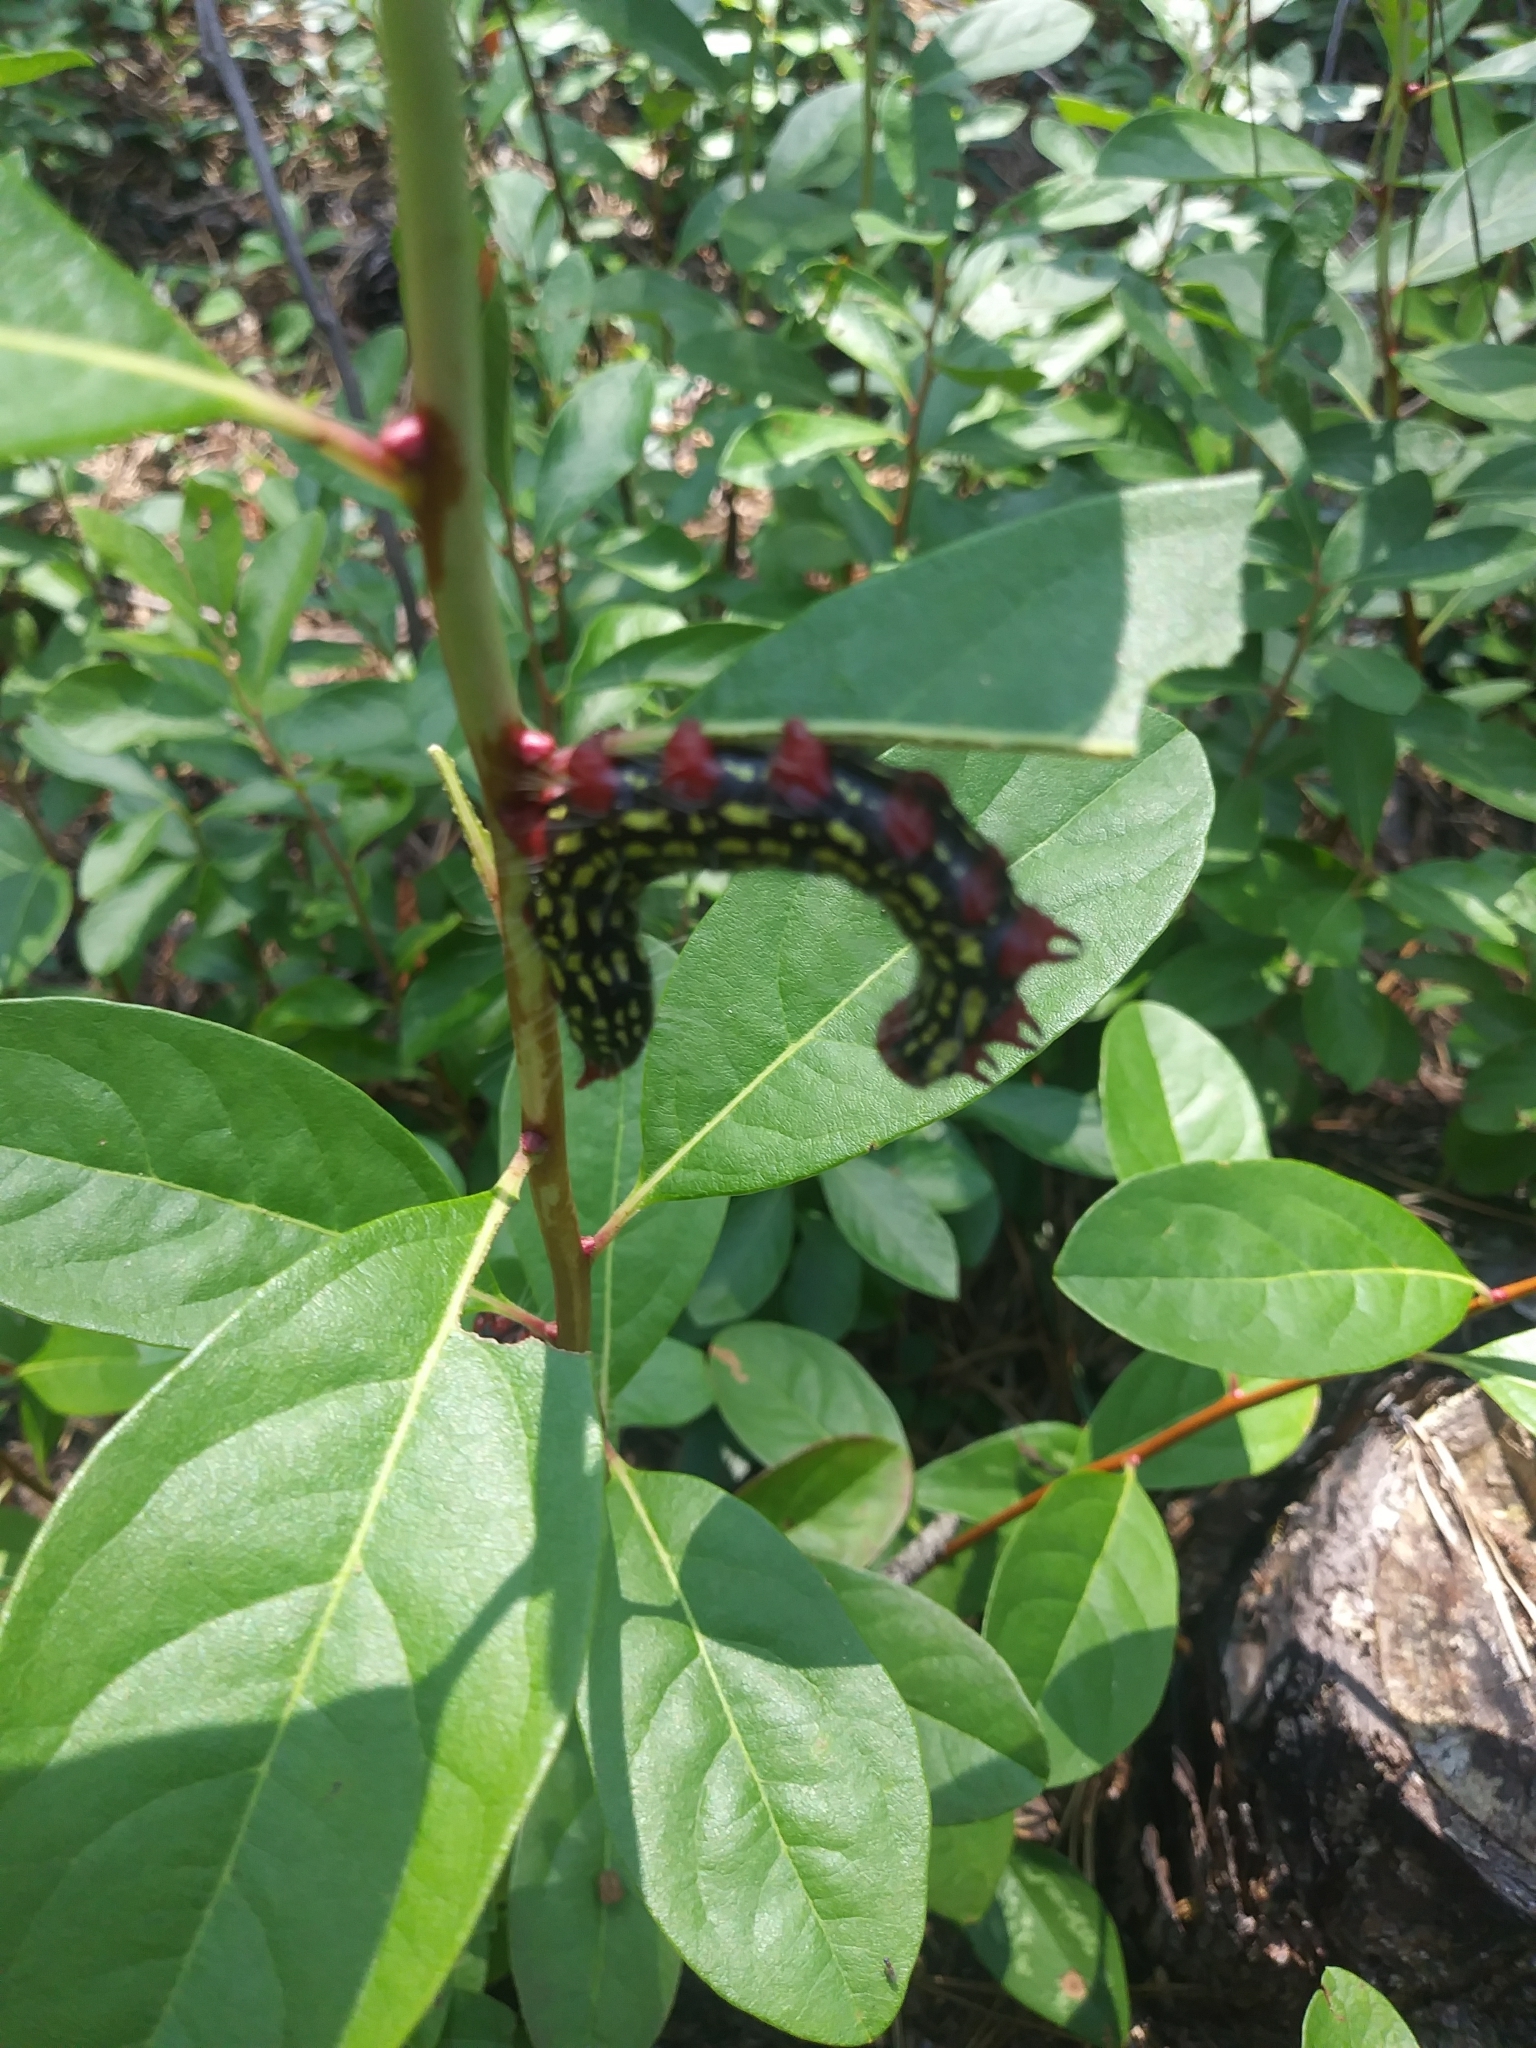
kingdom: Animalia
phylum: Arthropoda
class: Insecta
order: Lepidoptera
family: Notodontidae
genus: Datana
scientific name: Datana major
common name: Azalea caterpillar
